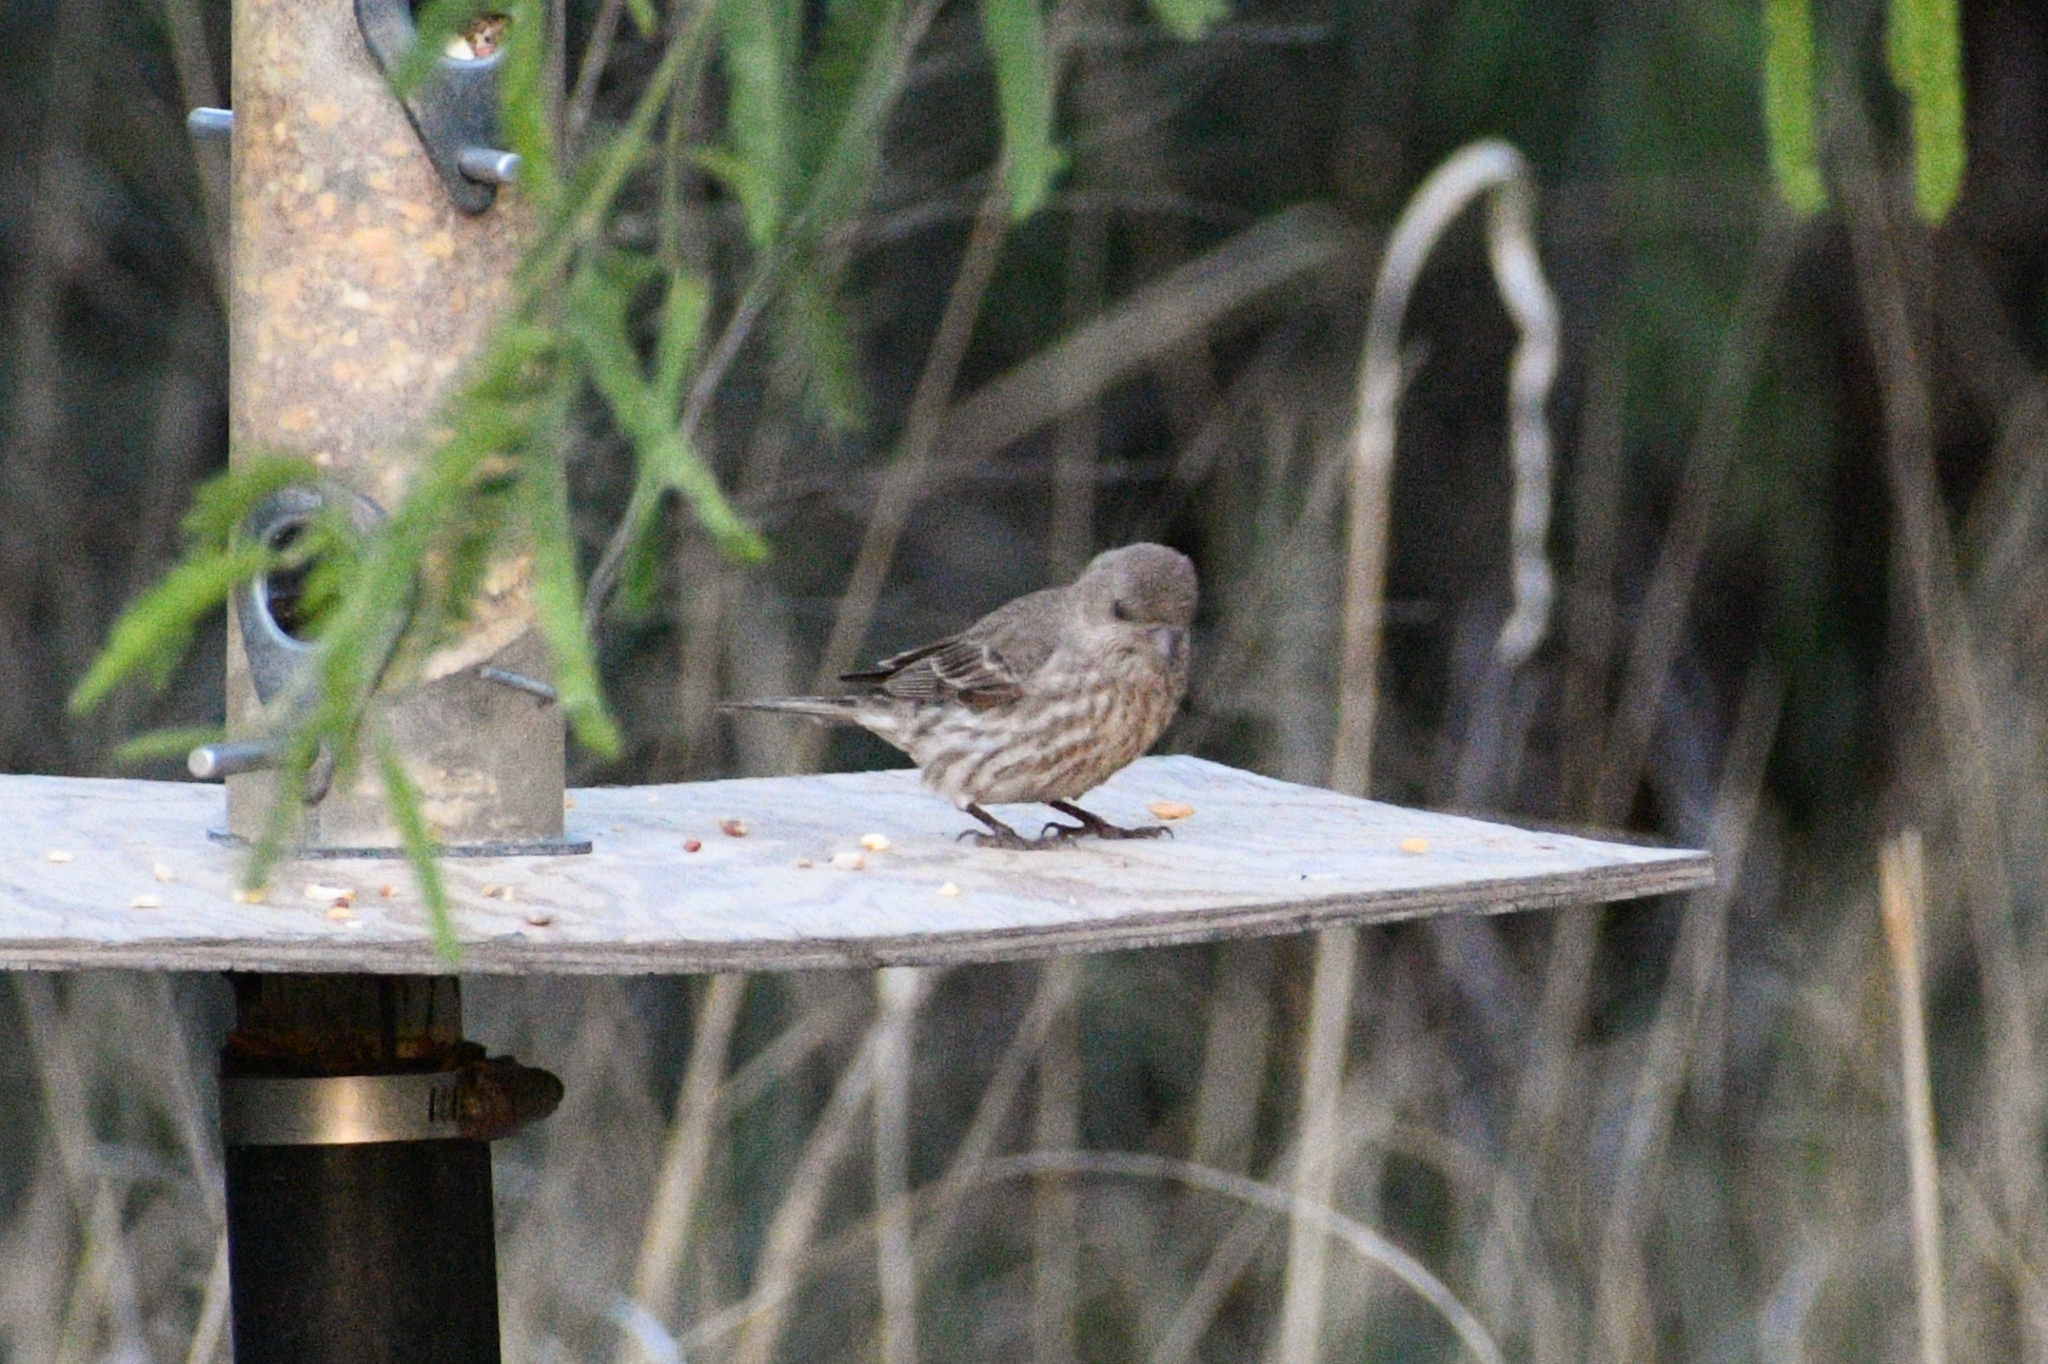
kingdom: Animalia
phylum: Chordata
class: Aves
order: Passeriformes
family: Fringillidae
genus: Haemorhous
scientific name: Haemorhous mexicanus
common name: House finch
